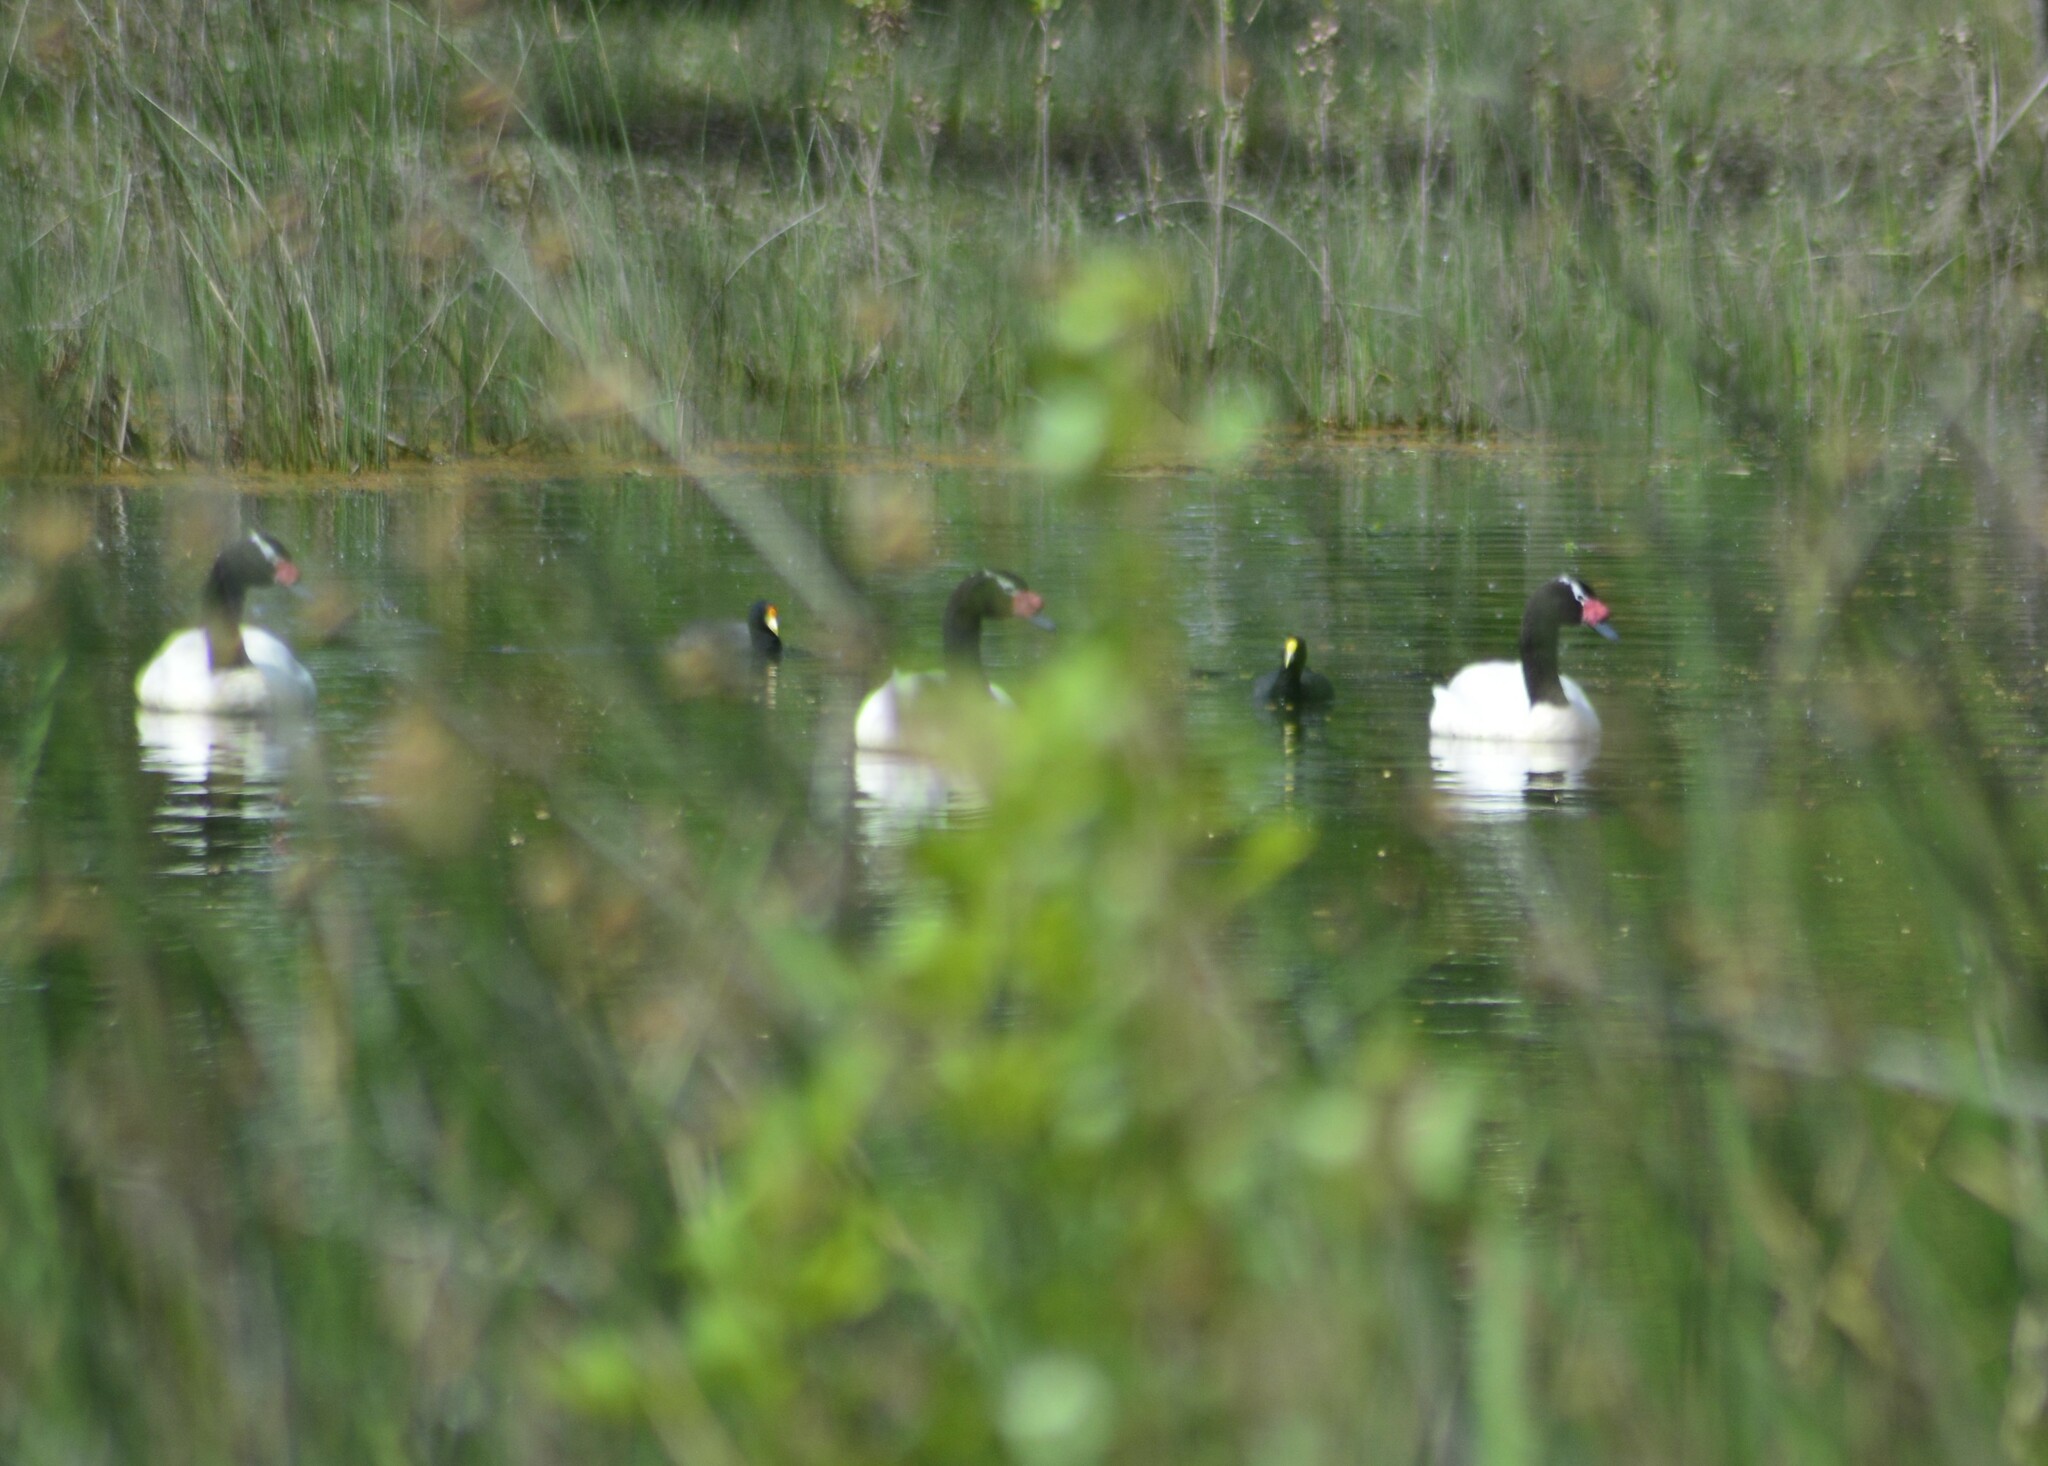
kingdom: Animalia
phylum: Chordata
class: Aves
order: Gruiformes
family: Rallidae
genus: Fulica
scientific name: Fulica leucoptera
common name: White-winged coot
